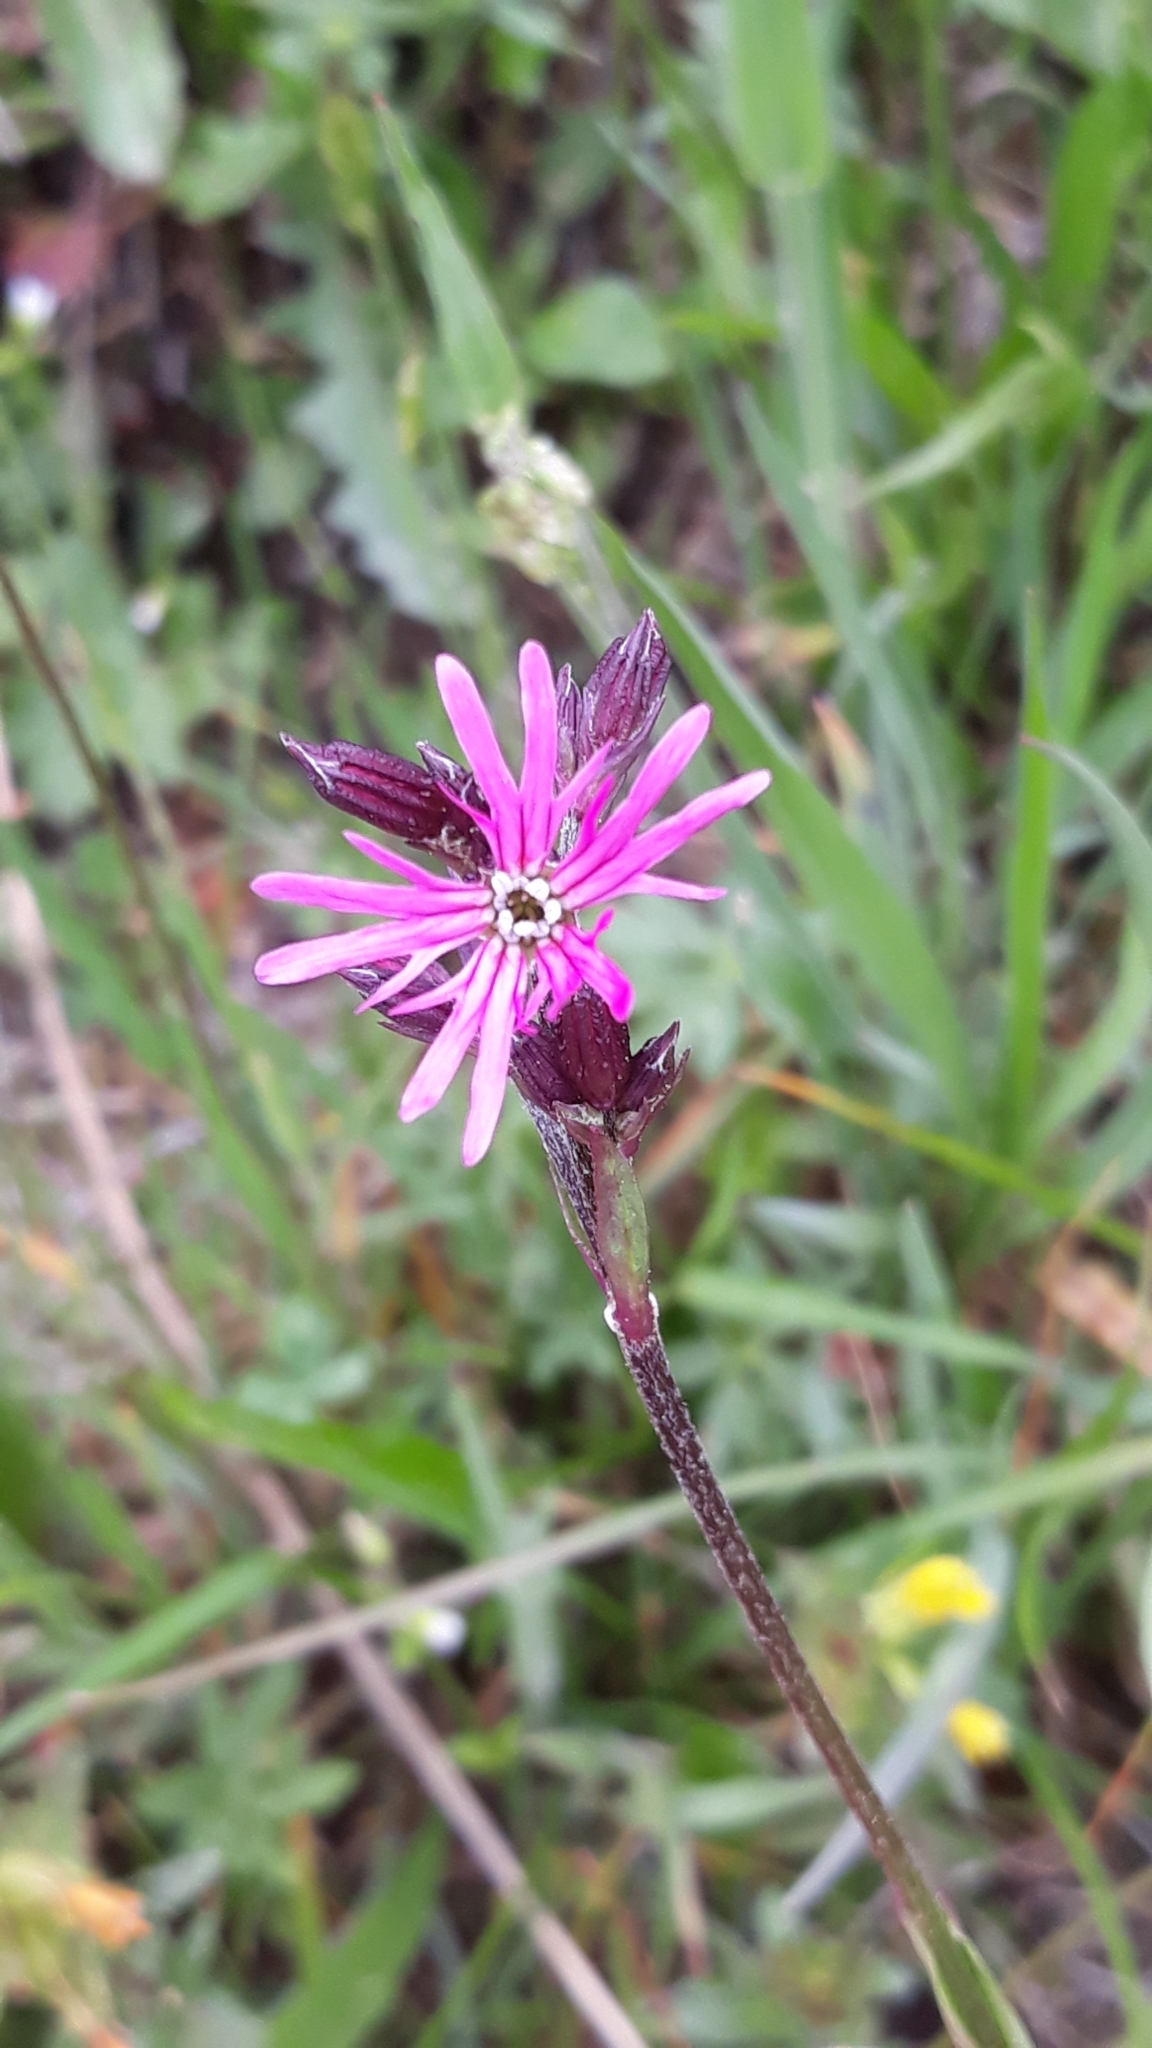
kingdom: Plantae
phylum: Tracheophyta
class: Magnoliopsida
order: Caryophyllales
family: Caryophyllaceae
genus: Silene
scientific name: Silene flos-cuculi
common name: Ragged-robin
